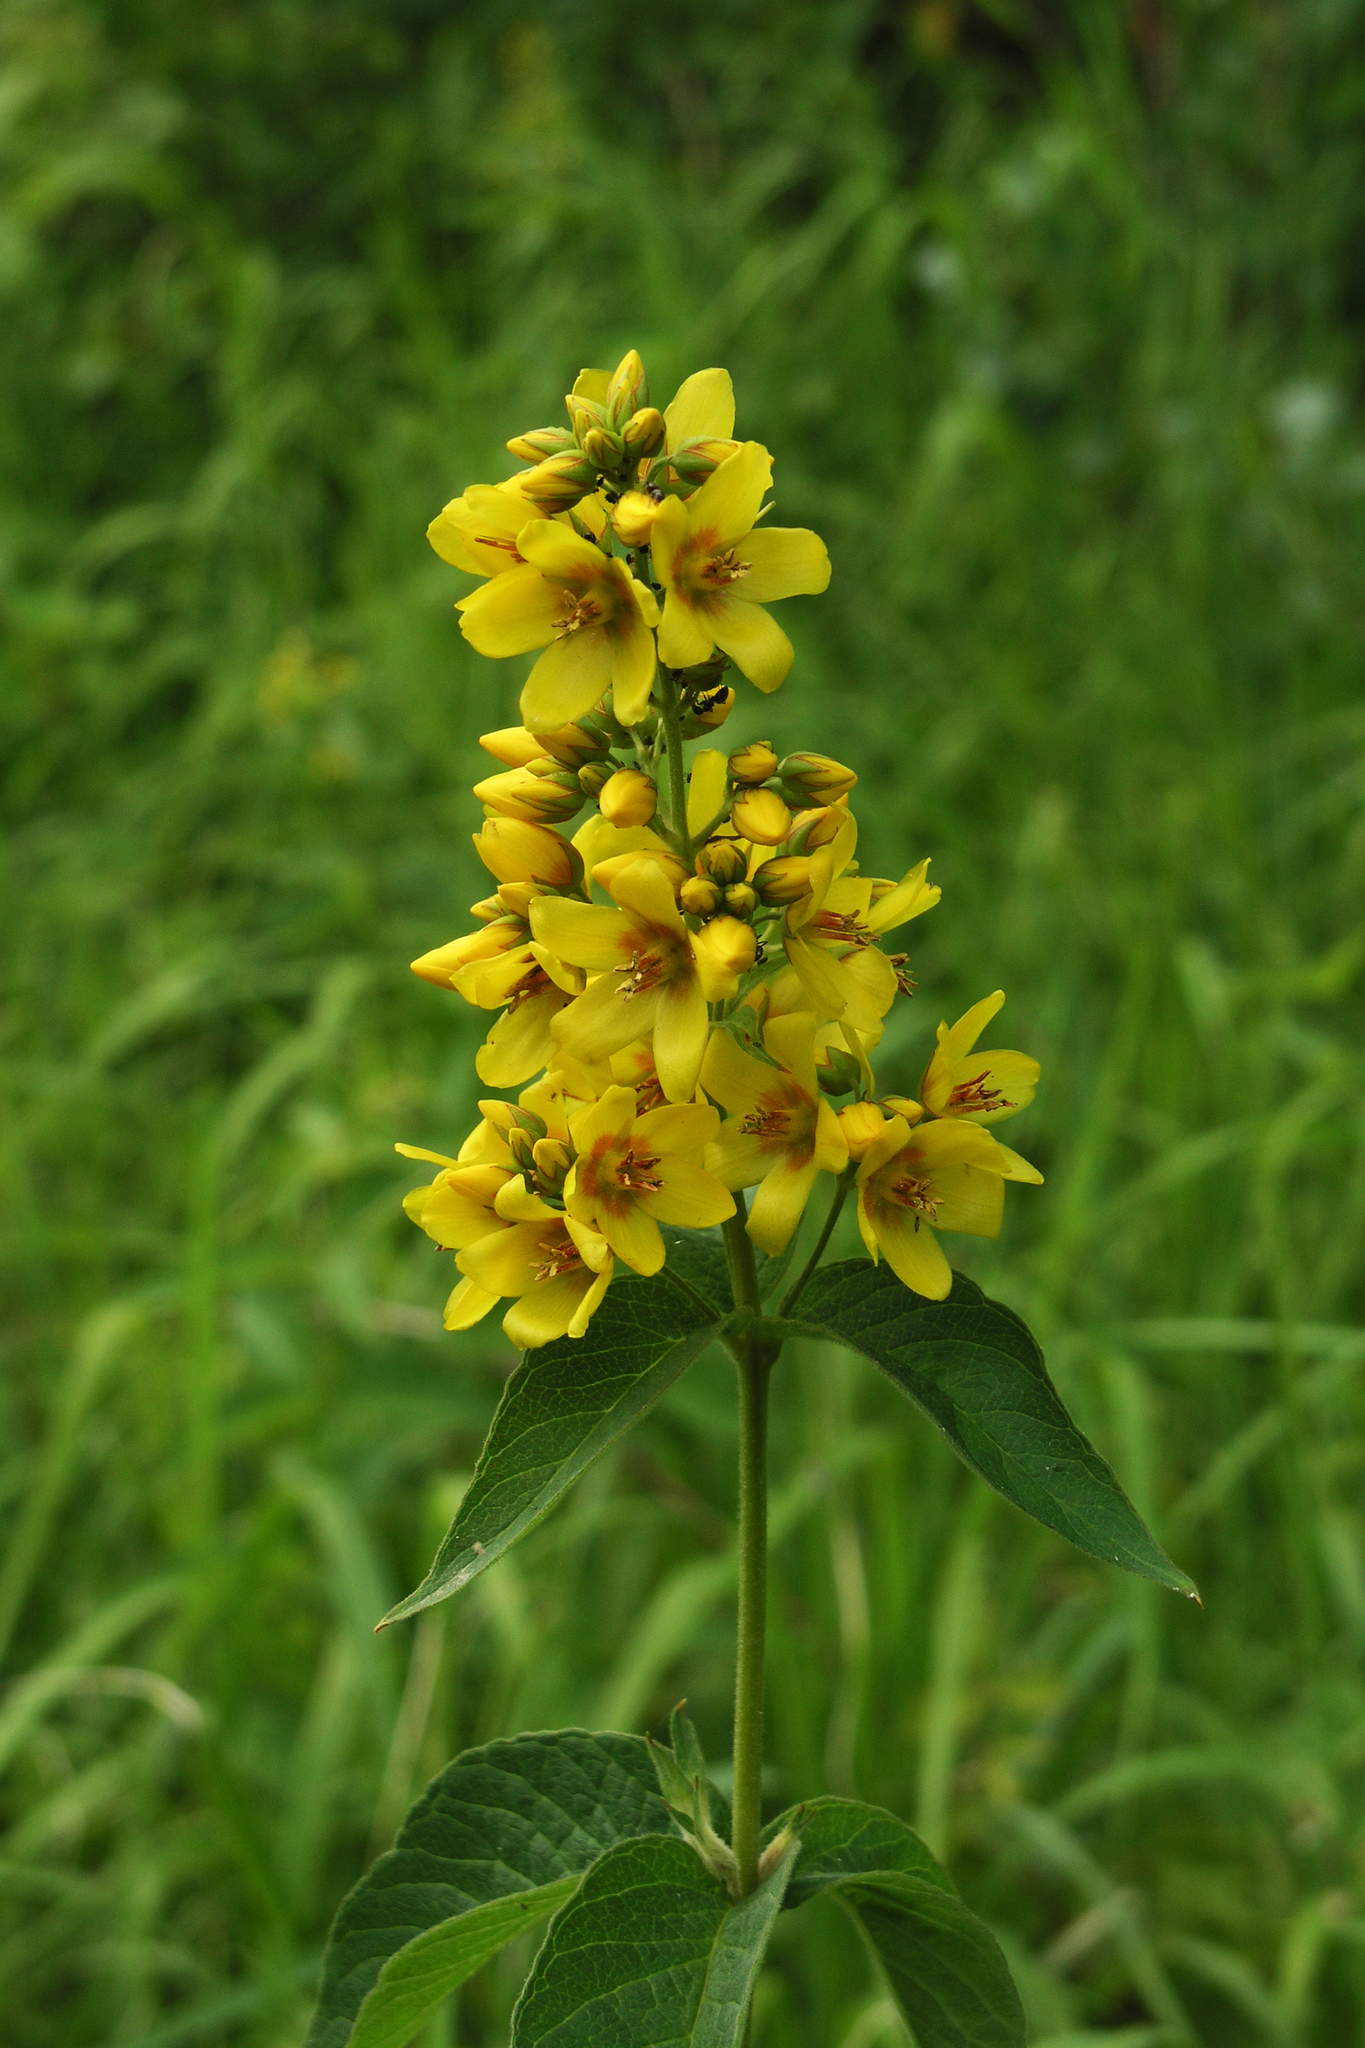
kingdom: Plantae
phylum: Tracheophyta
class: Magnoliopsida
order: Ericales
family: Primulaceae
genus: Lysimachia
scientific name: Lysimachia vulgaris
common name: Yellow loosestrife
